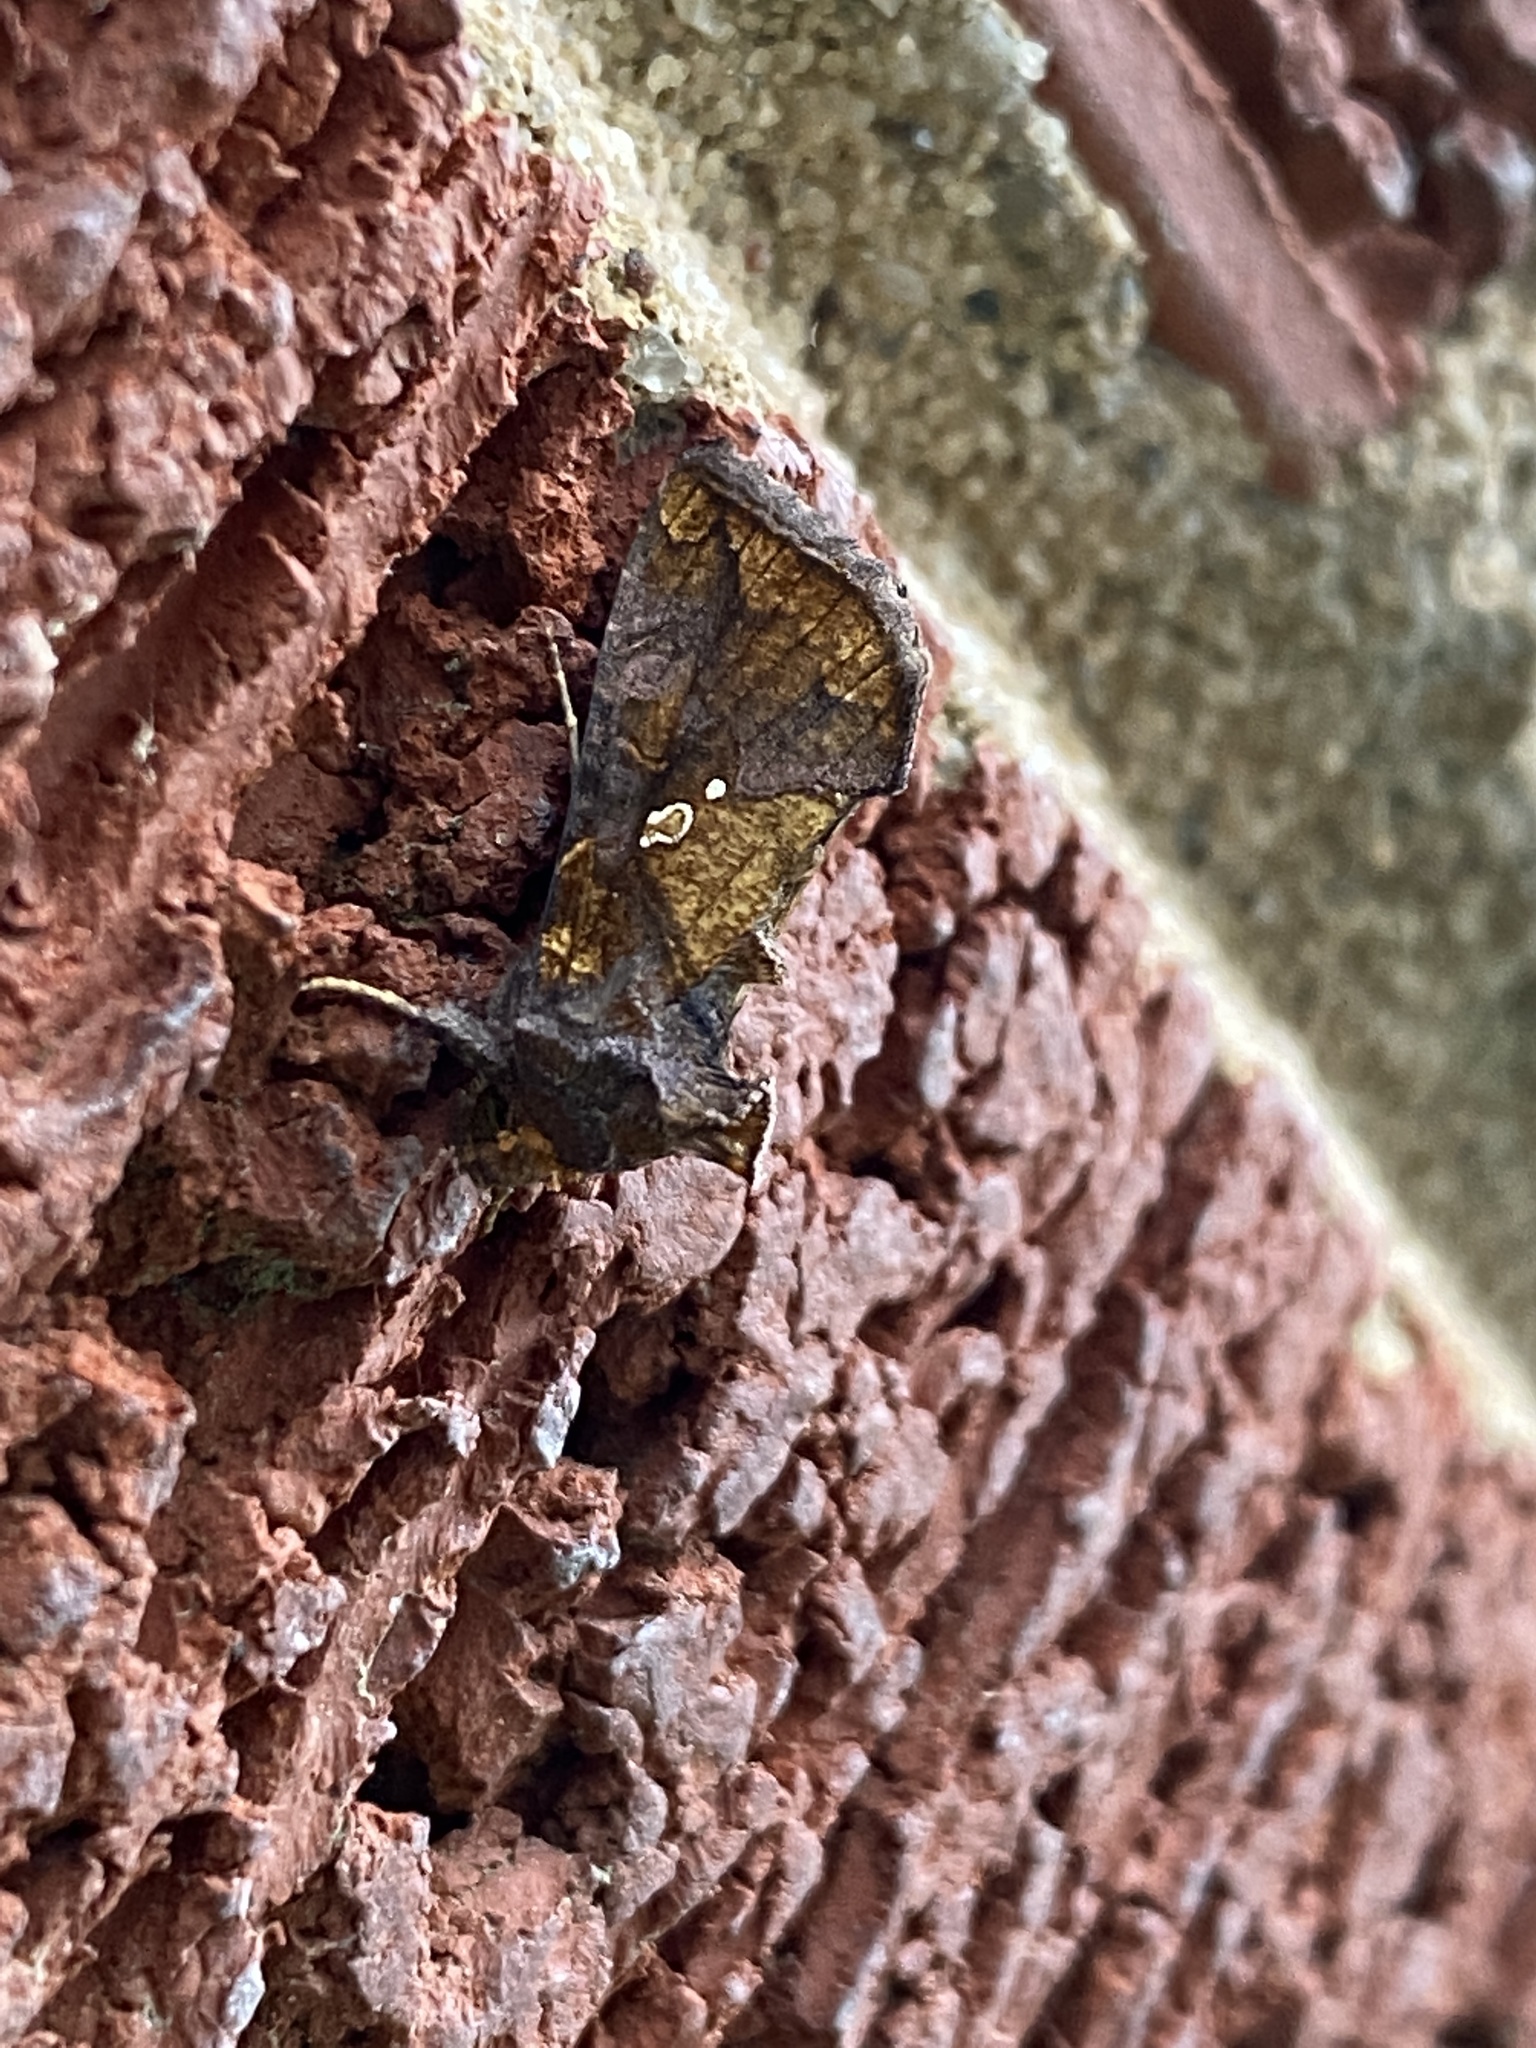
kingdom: Animalia
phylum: Arthropoda
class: Insecta
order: Lepidoptera
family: Noctuidae
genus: Argyrogramma
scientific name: Argyrogramma verruca
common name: Golden looper moth
